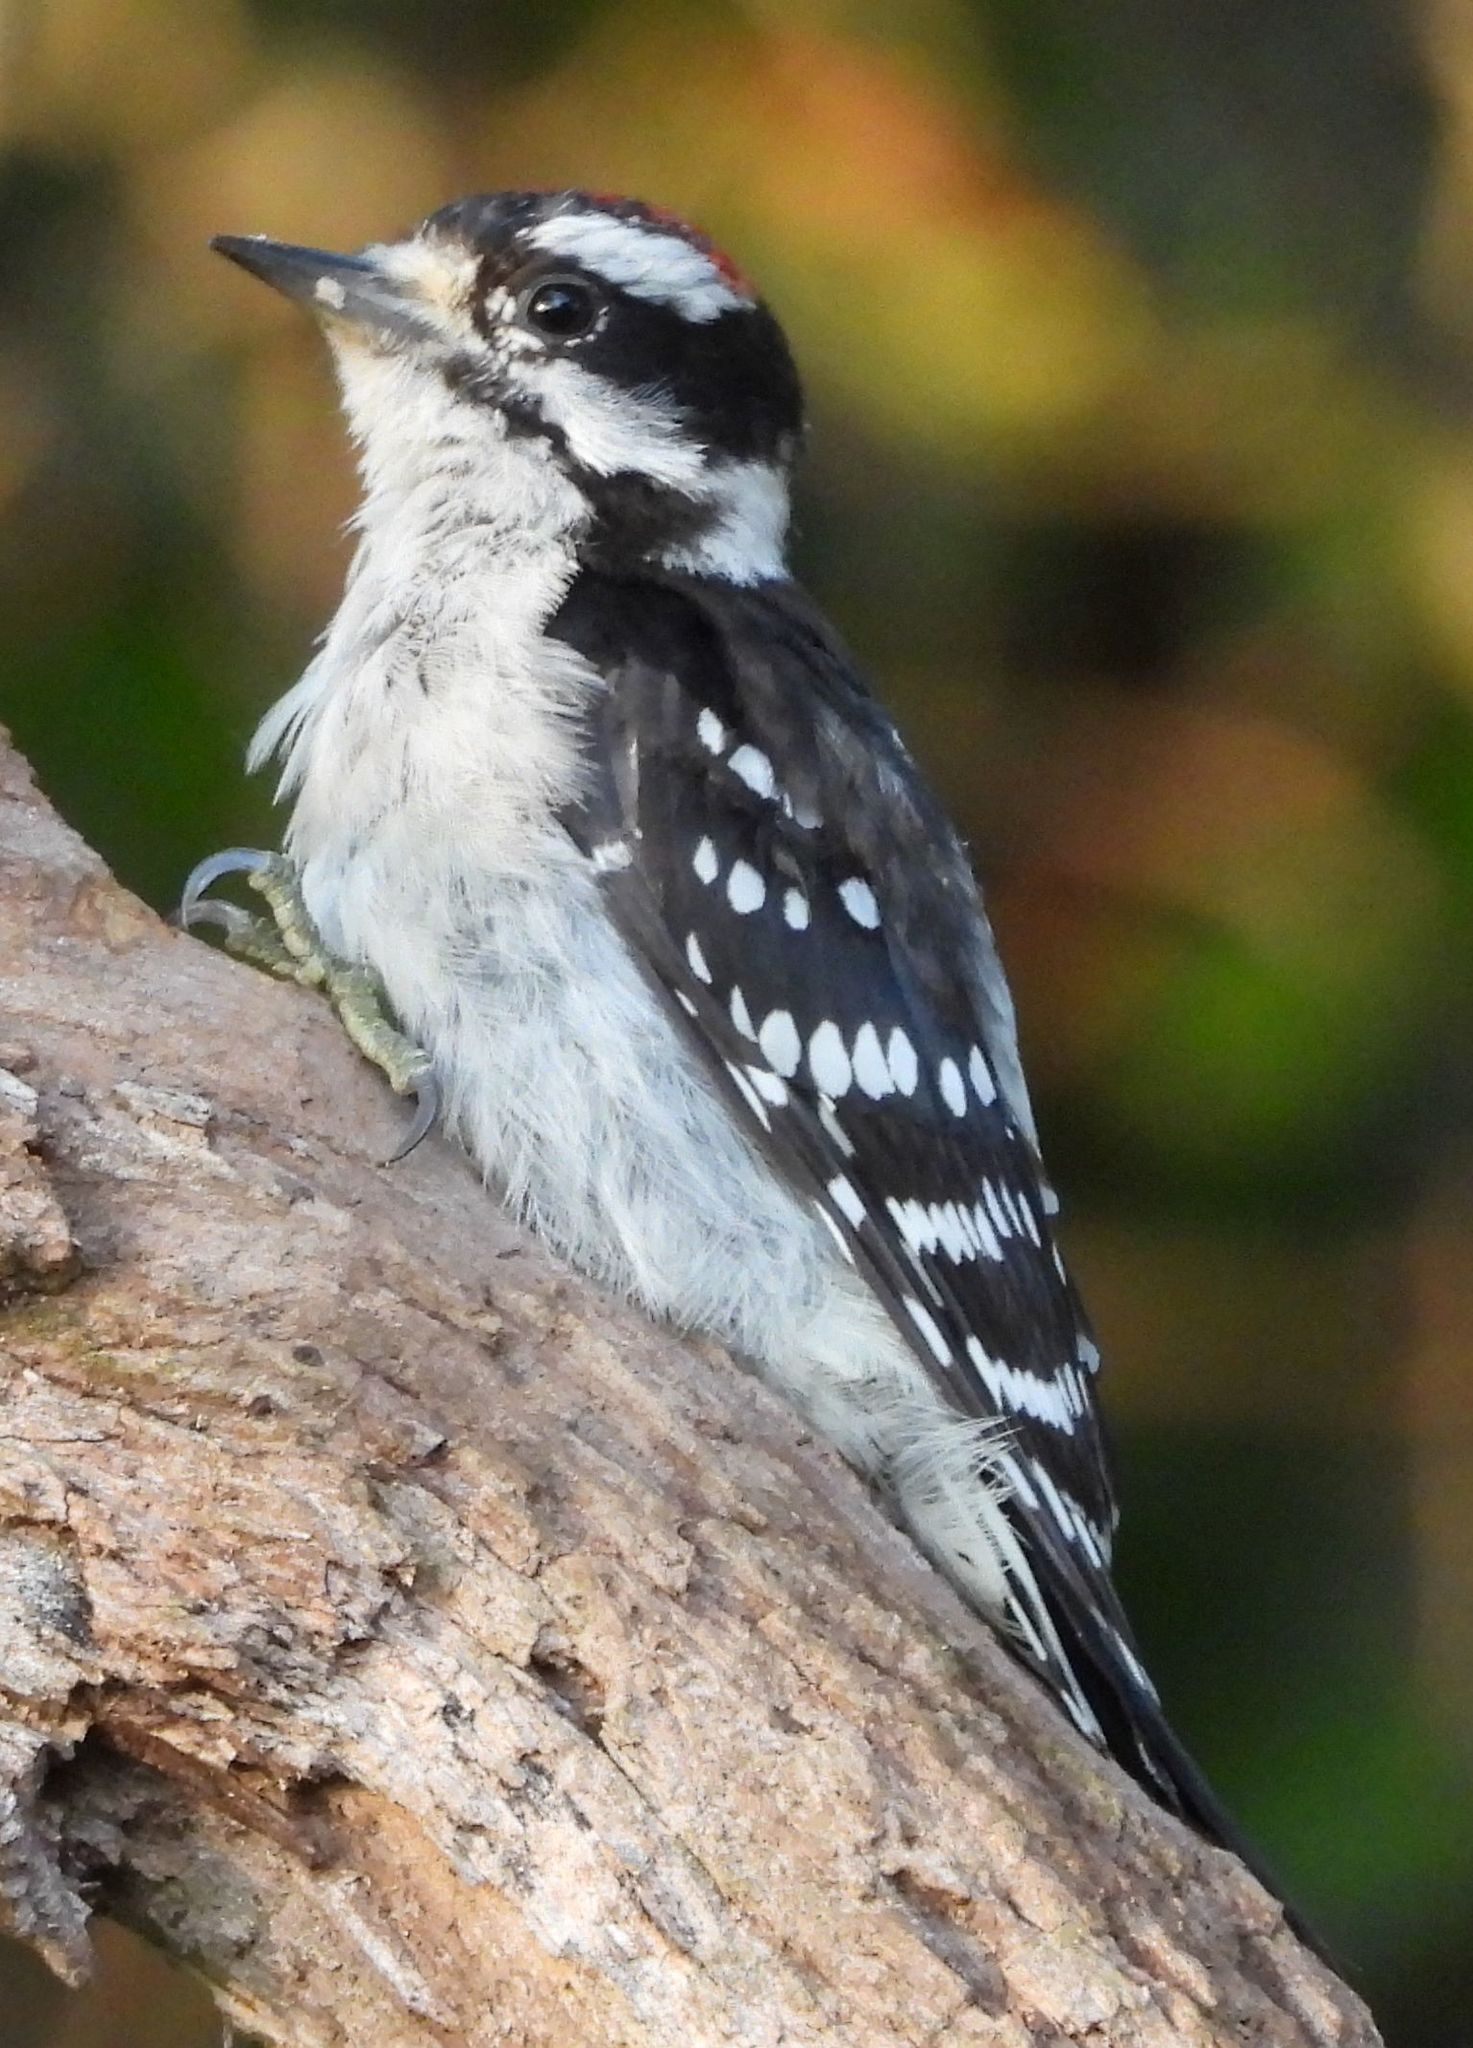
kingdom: Animalia
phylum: Chordata
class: Aves
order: Piciformes
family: Picidae
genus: Dryobates
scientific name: Dryobates pubescens
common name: Downy woodpecker
